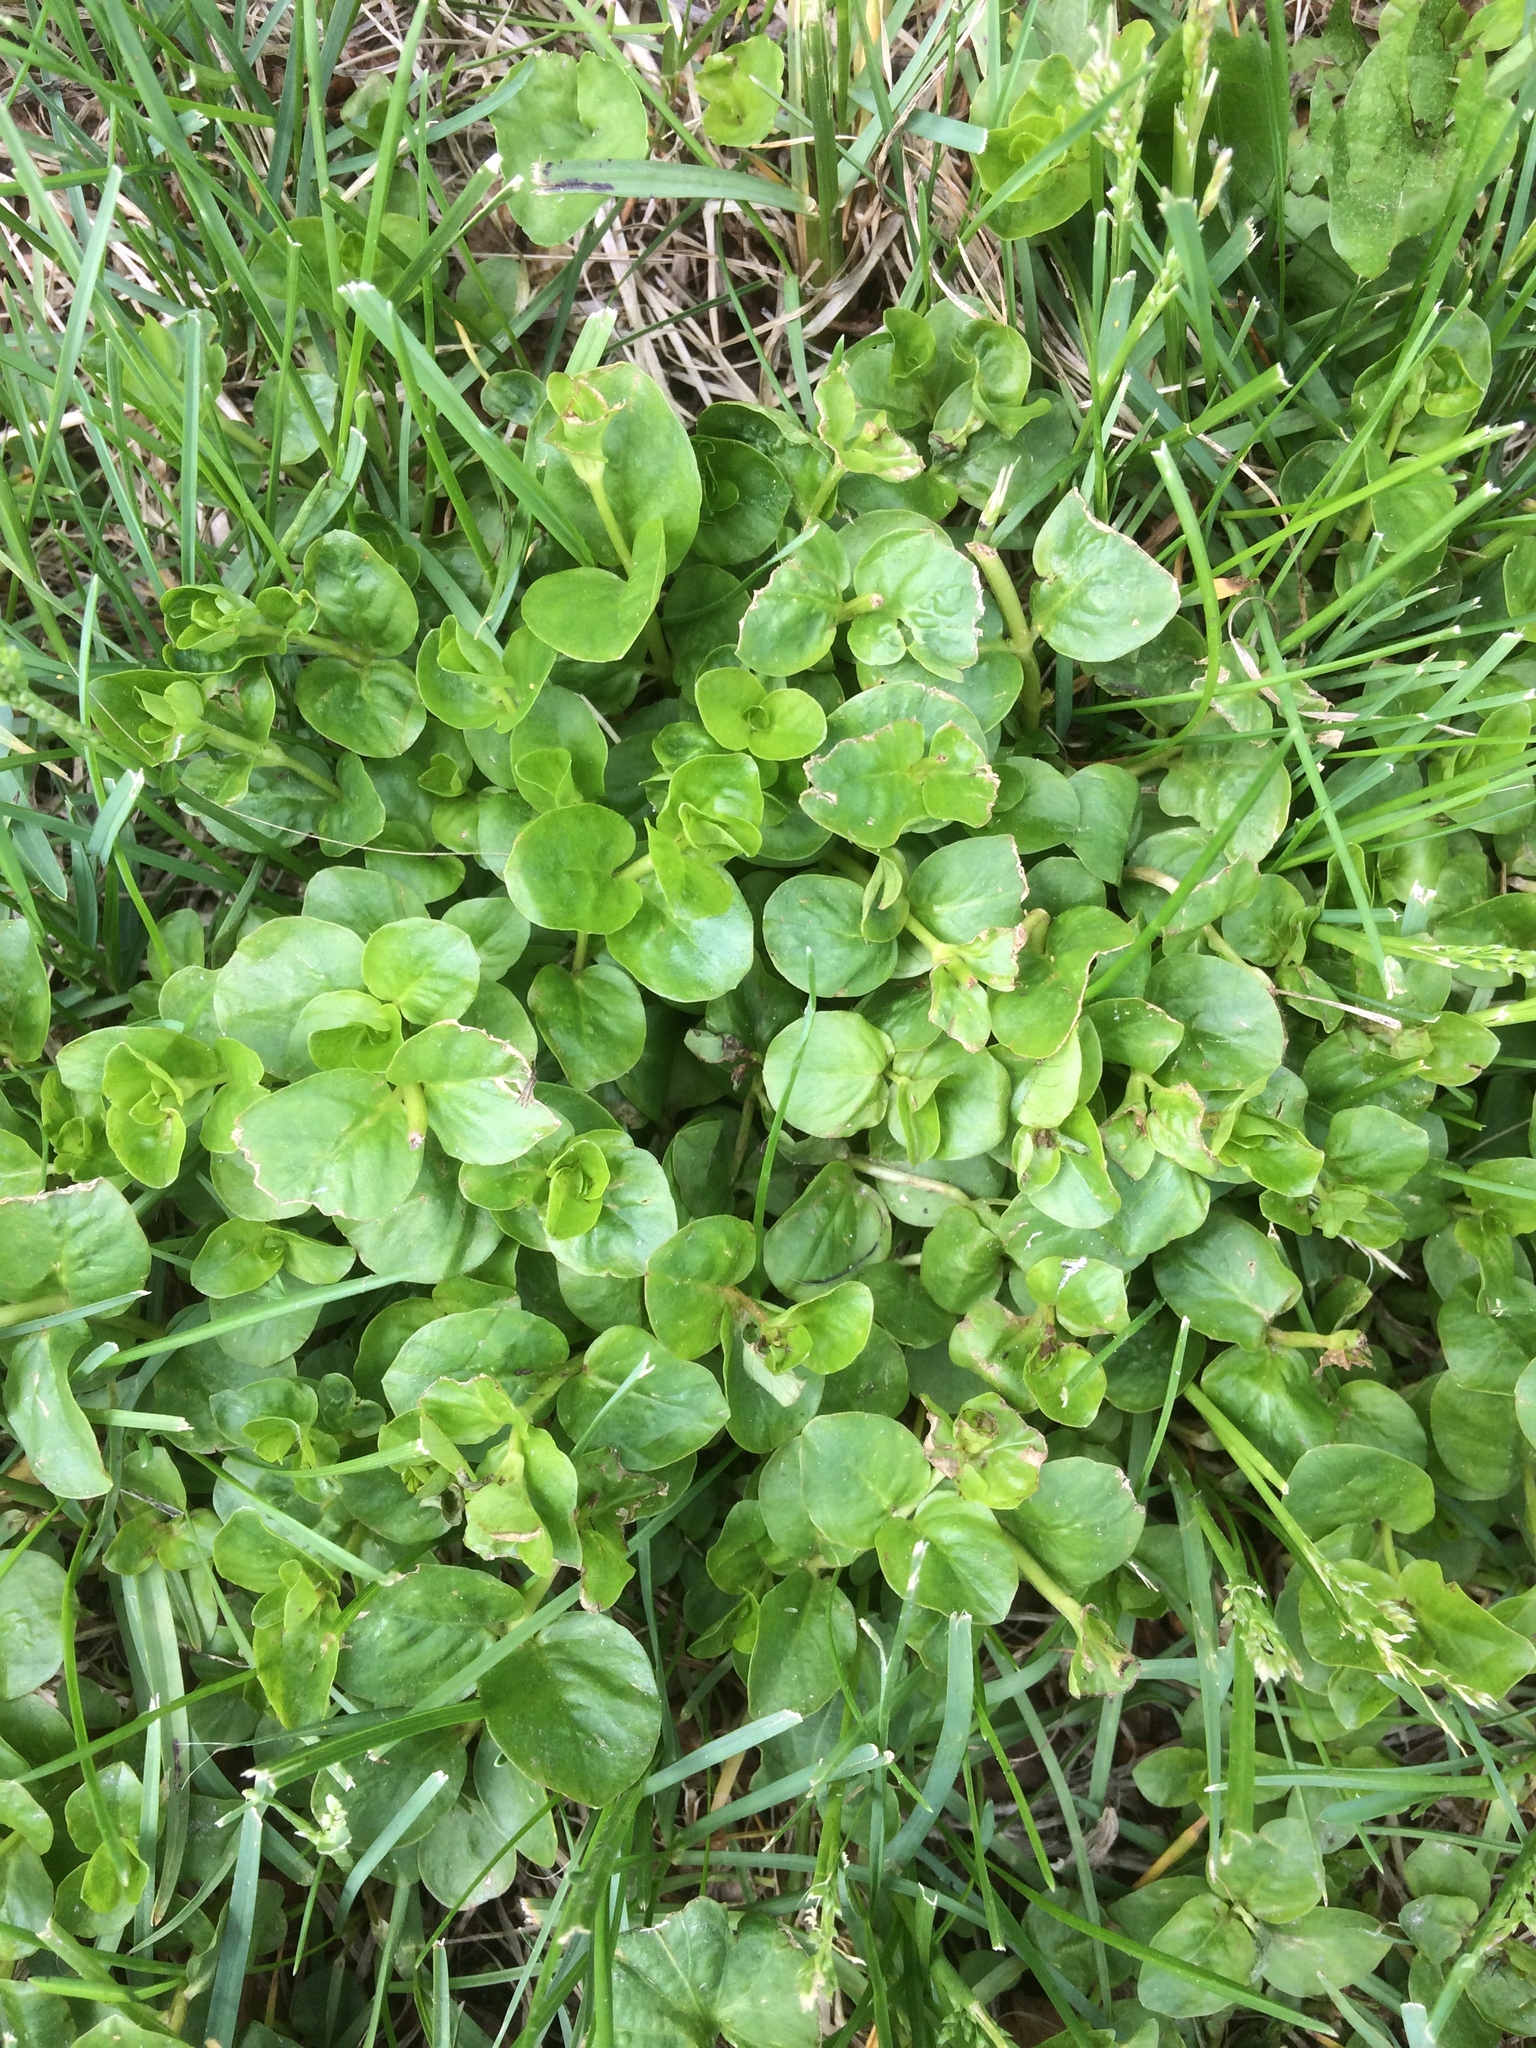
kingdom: Plantae
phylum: Tracheophyta
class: Magnoliopsida
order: Ericales
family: Primulaceae
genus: Lysimachia
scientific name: Lysimachia nummularia
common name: Moneywort
